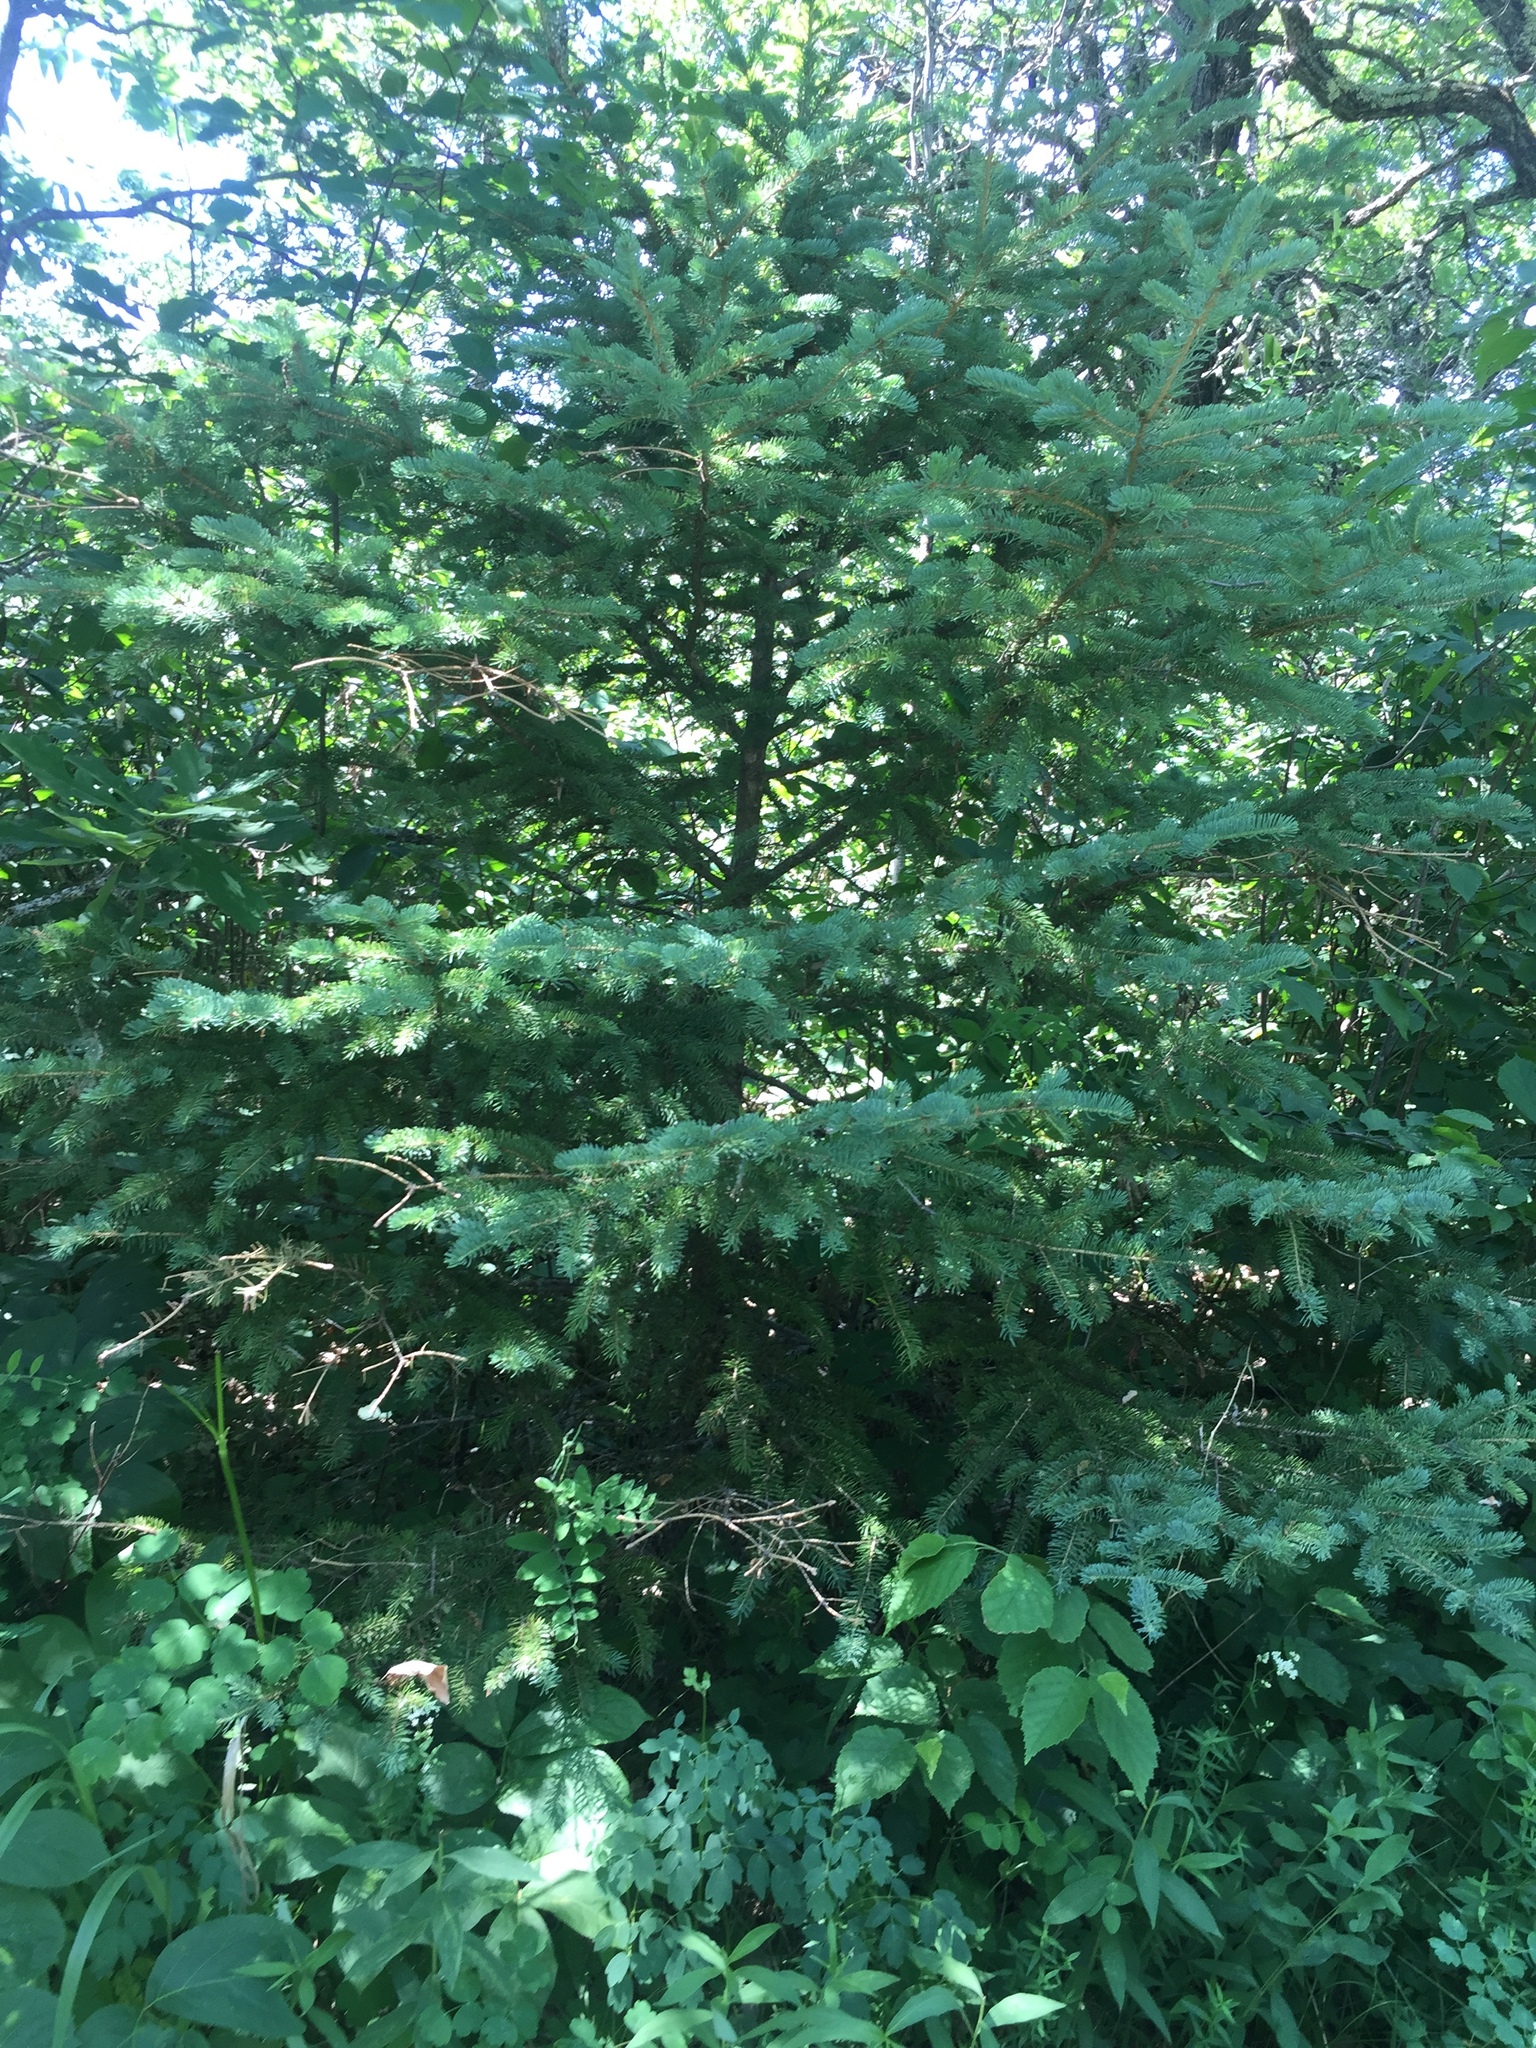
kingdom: Plantae
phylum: Tracheophyta
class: Pinopsida
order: Pinales
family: Pinaceae
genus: Picea
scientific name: Picea glauca
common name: White spruce
